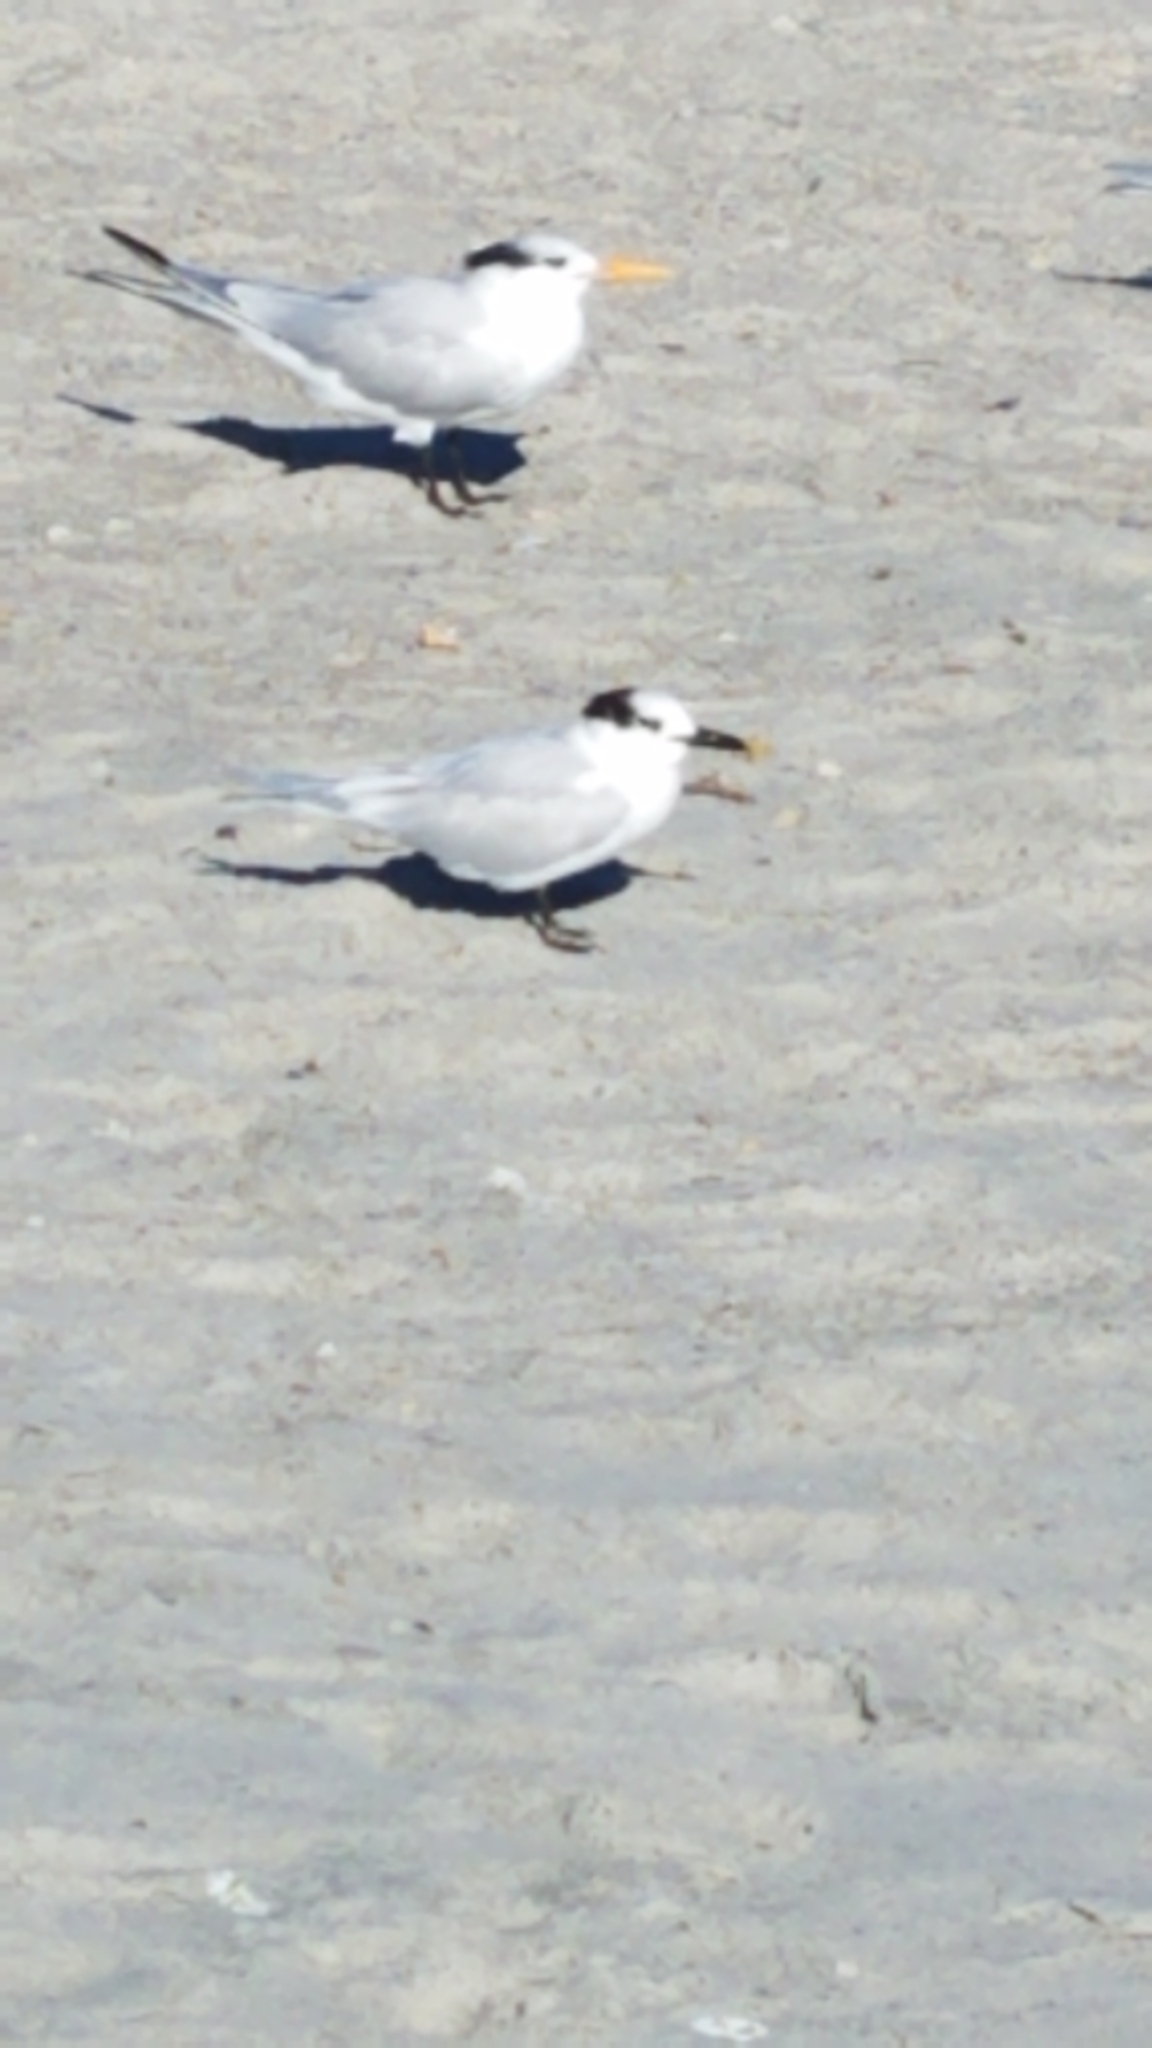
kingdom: Animalia
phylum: Chordata
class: Aves
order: Charadriiformes
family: Laridae
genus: Thalasseus
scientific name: Thalasseus sandvicensis
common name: Sandwich tern
